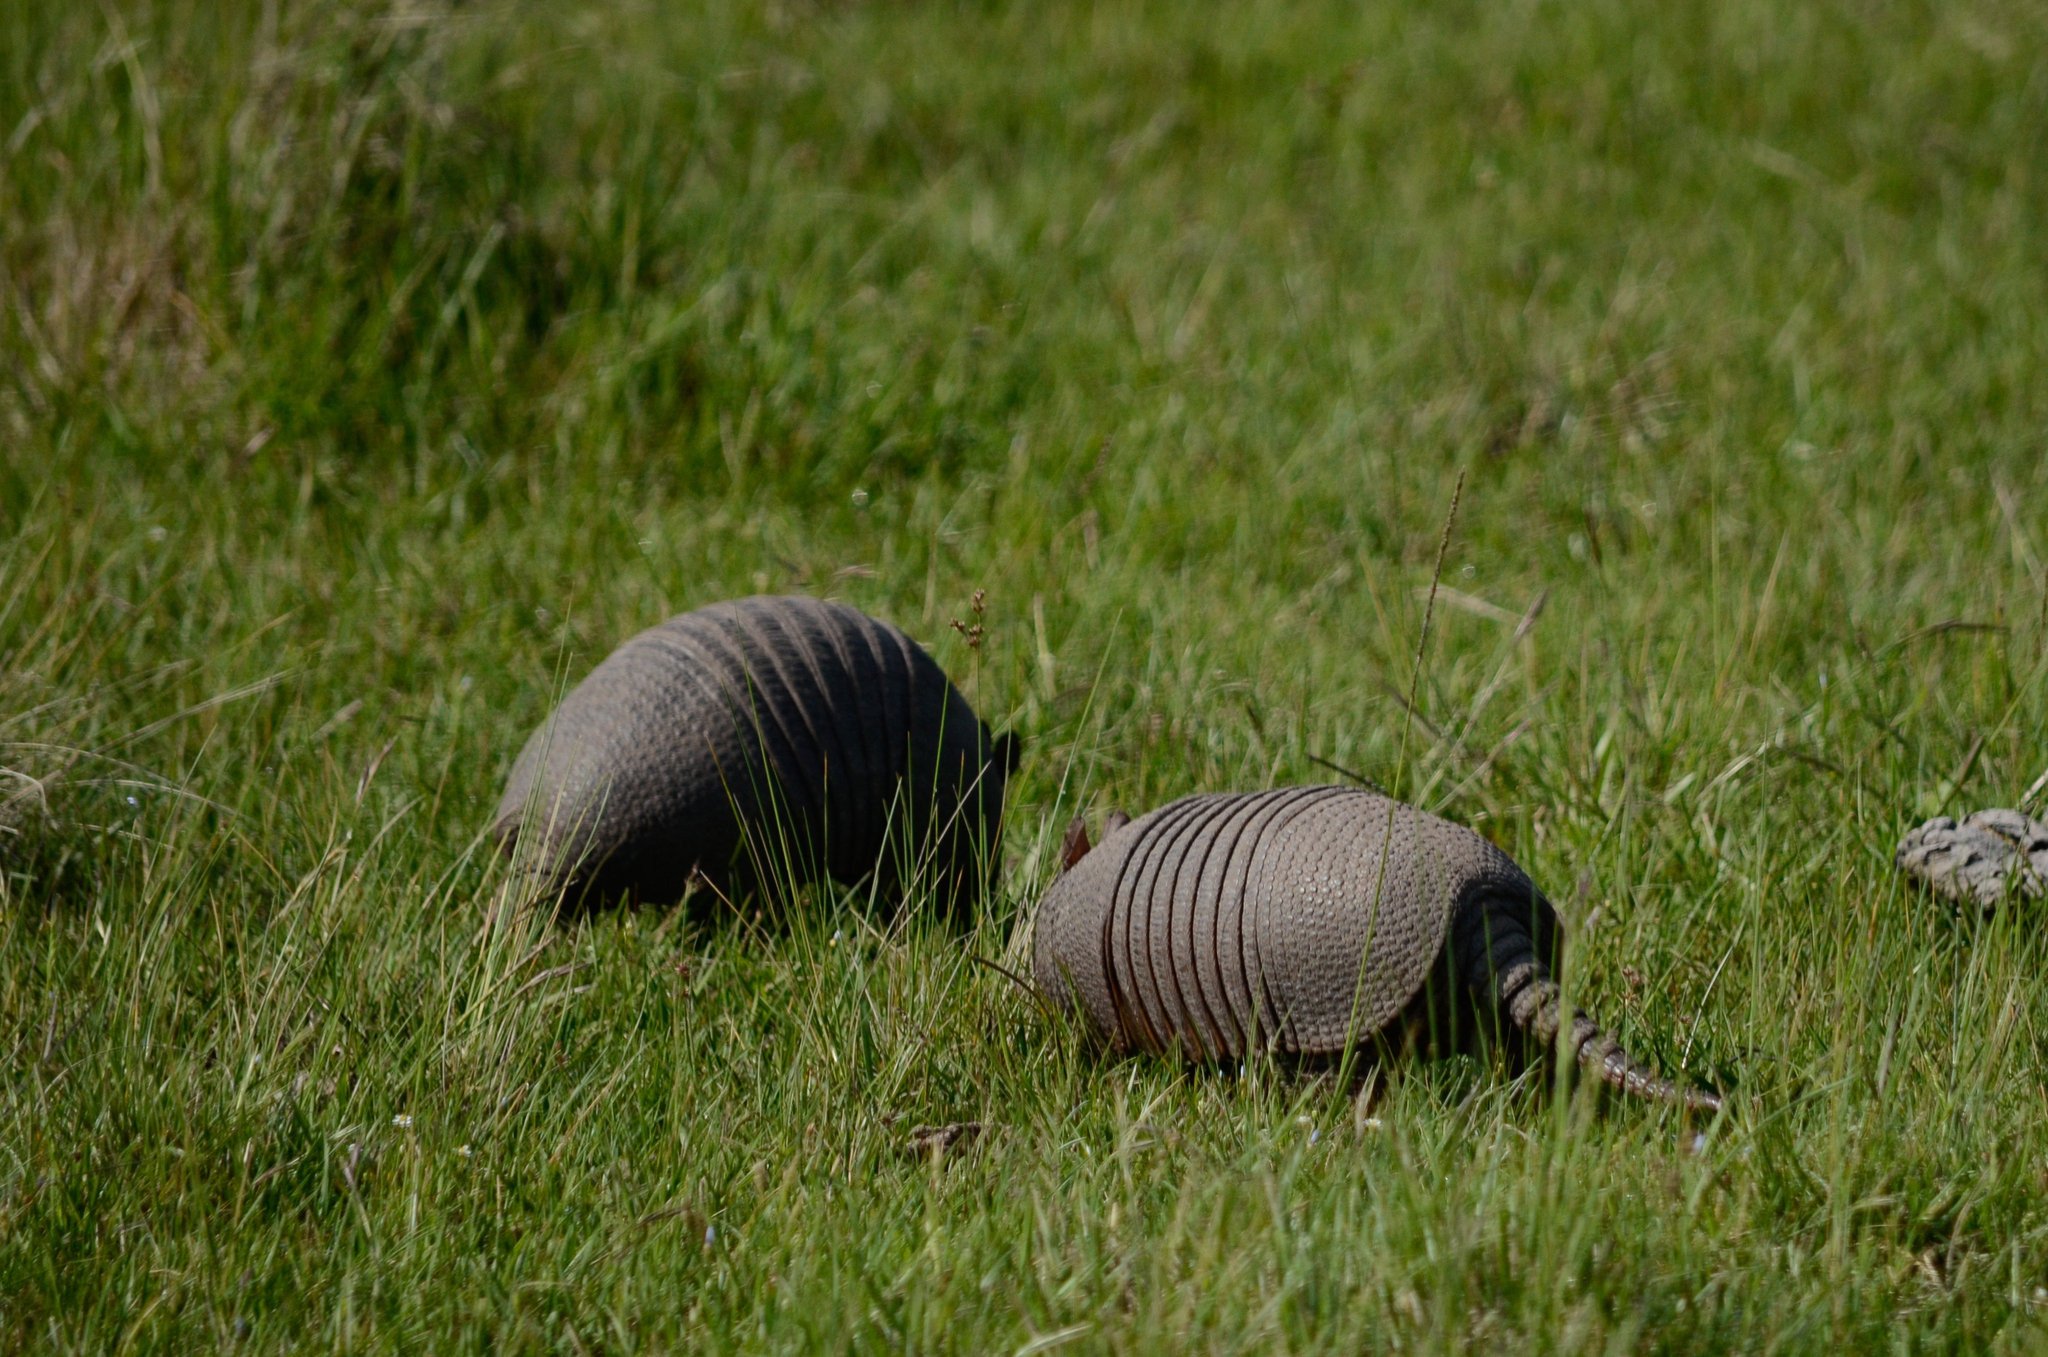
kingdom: Animalia
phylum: Chordata
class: Mammalia
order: Cingulata
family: Dasypodidae
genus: Dasypus
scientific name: Dasypus septemcinctus
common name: Seven-banded armadillo
